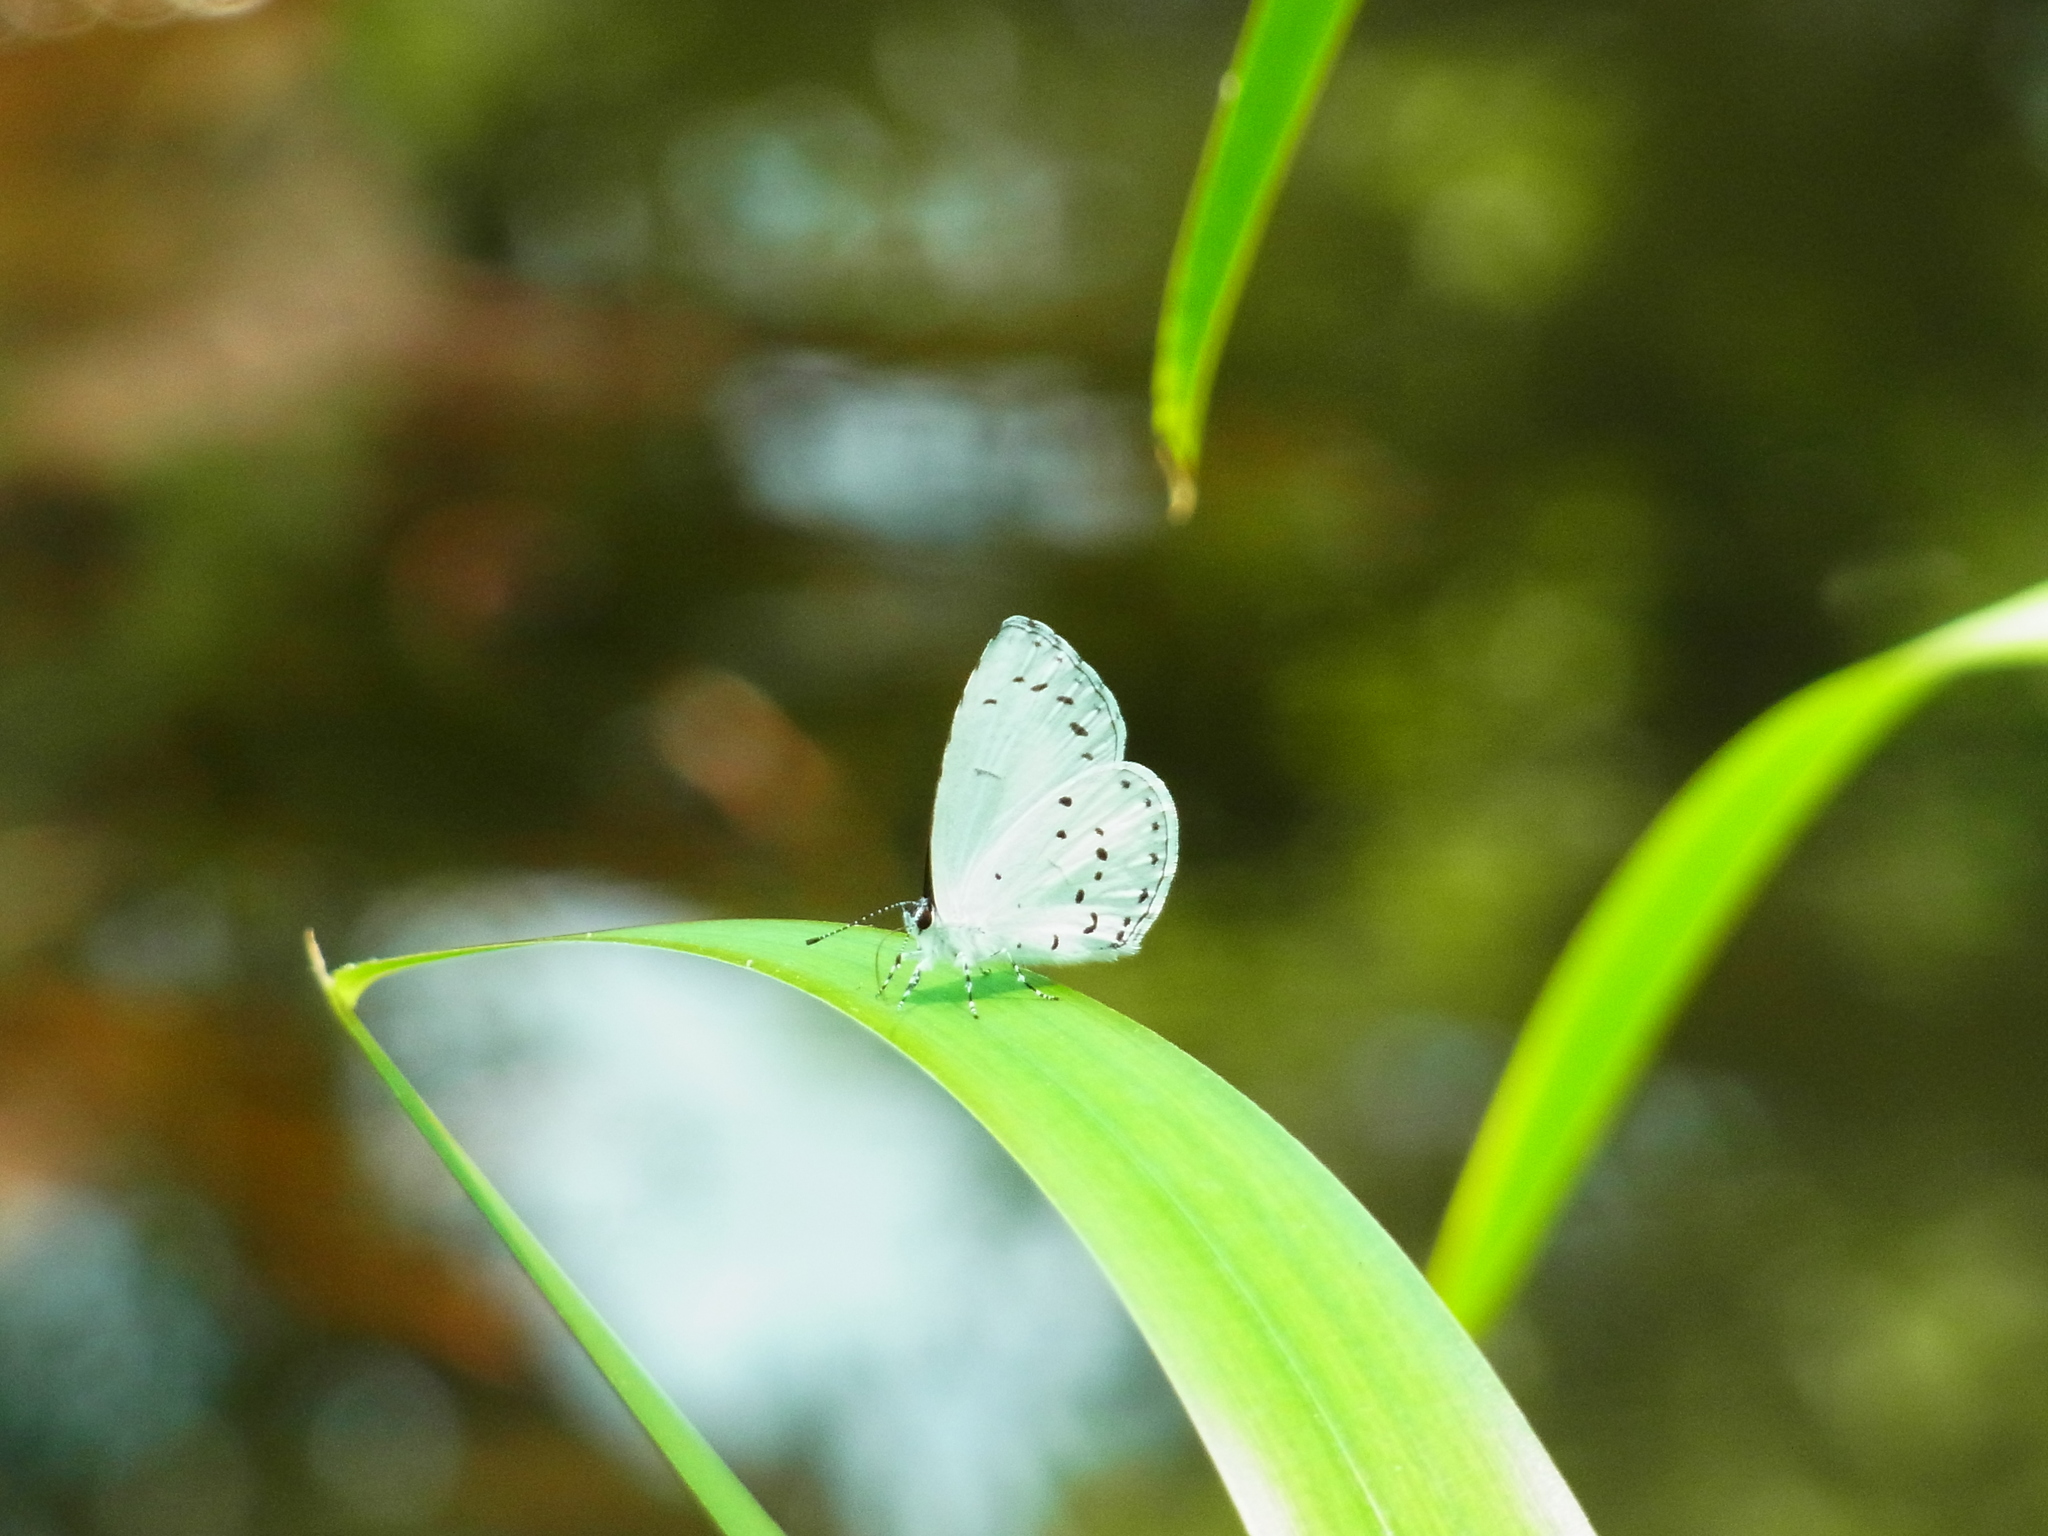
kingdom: Animalia
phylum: Arthropoda
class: Insecta
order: Lepidoptera
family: Lycaenidae
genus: Udara
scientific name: Udara albocaerulea
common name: Albocerulean
